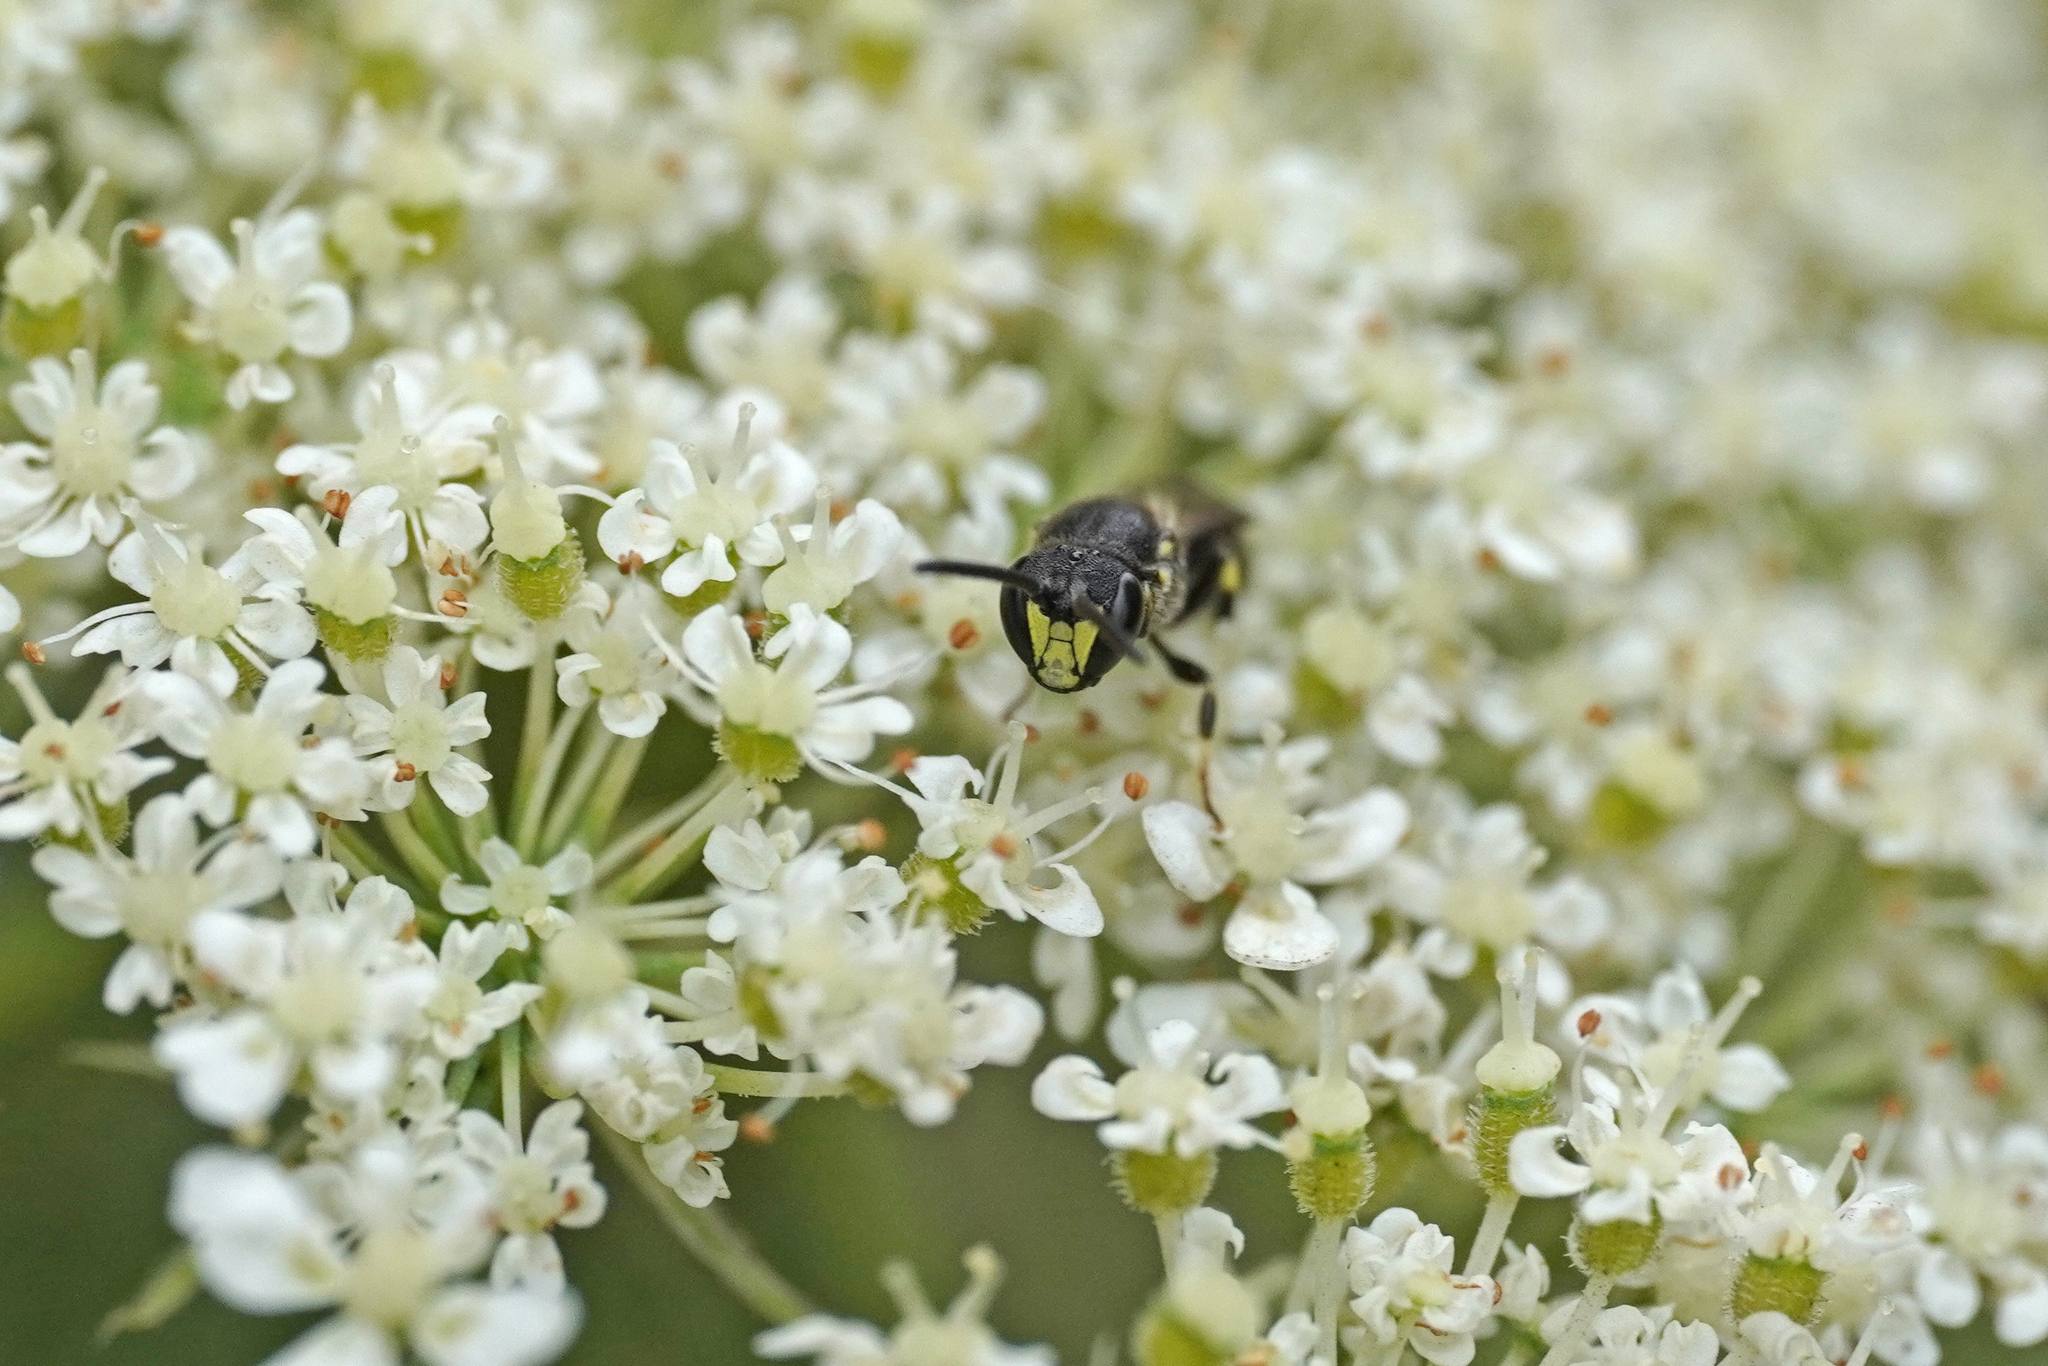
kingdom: Animalia
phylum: Arthropoda
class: Insecta
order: Hymenoptera
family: Colletidae
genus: Hylaeus
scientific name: Hylaeus communis
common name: Common yellow-face bee
